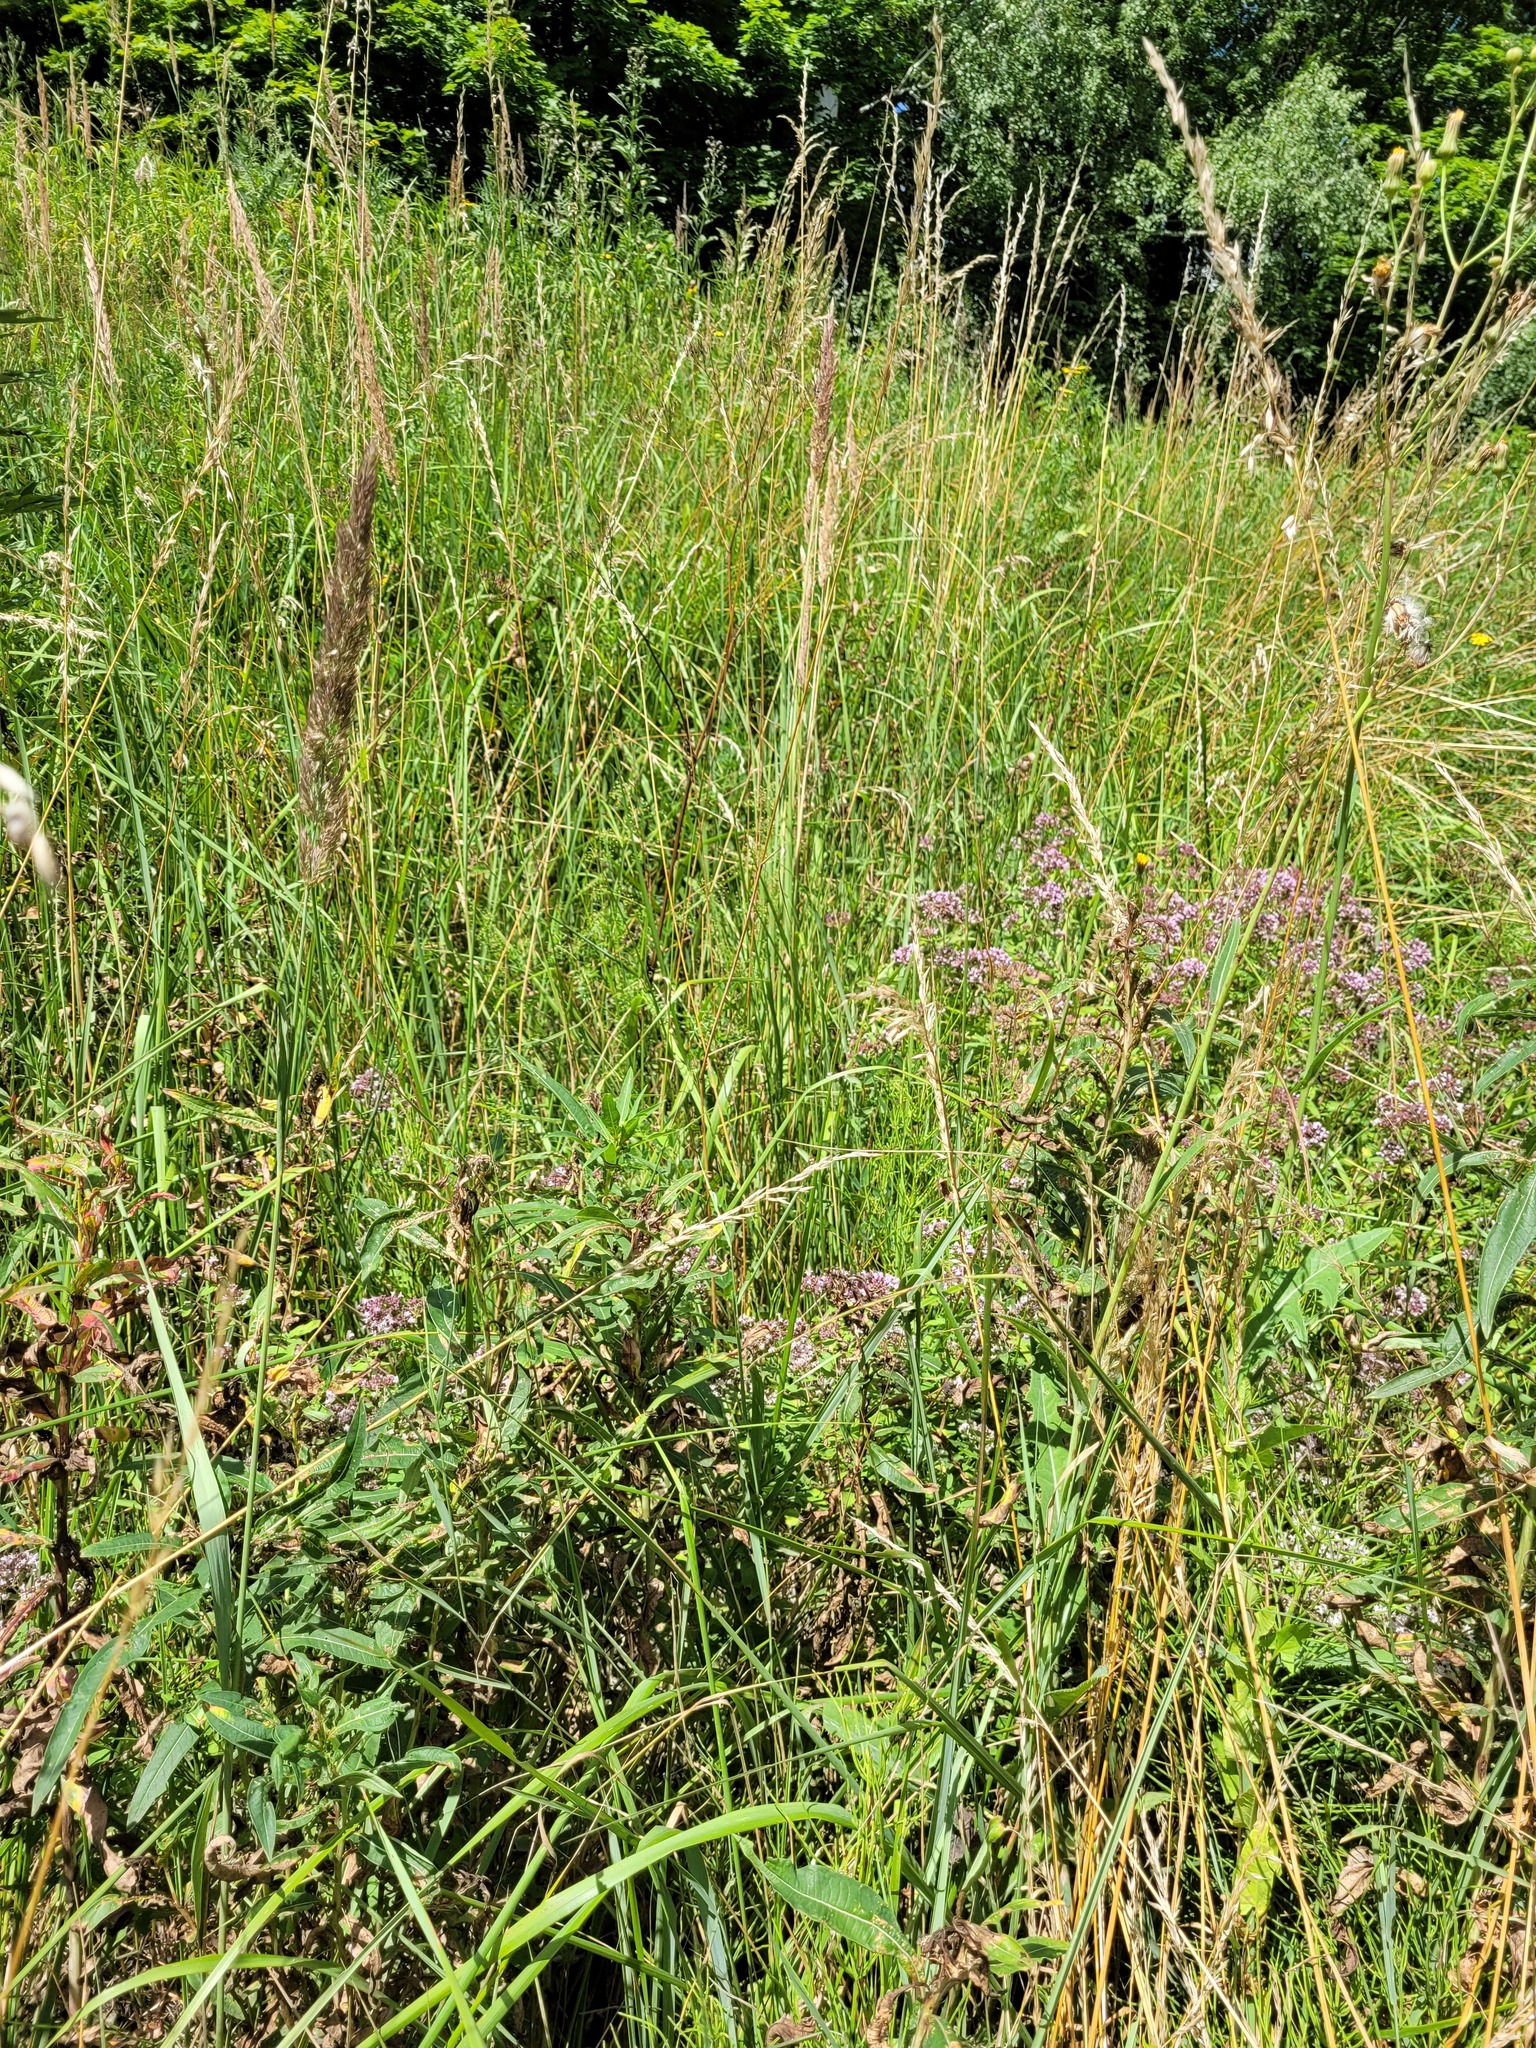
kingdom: Plantae
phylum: Tracheophyta
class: Magnoliopsida
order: Lamiales
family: Lamiaceae
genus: Origanum
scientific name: Origanum vulgare
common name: Wild marjoram
